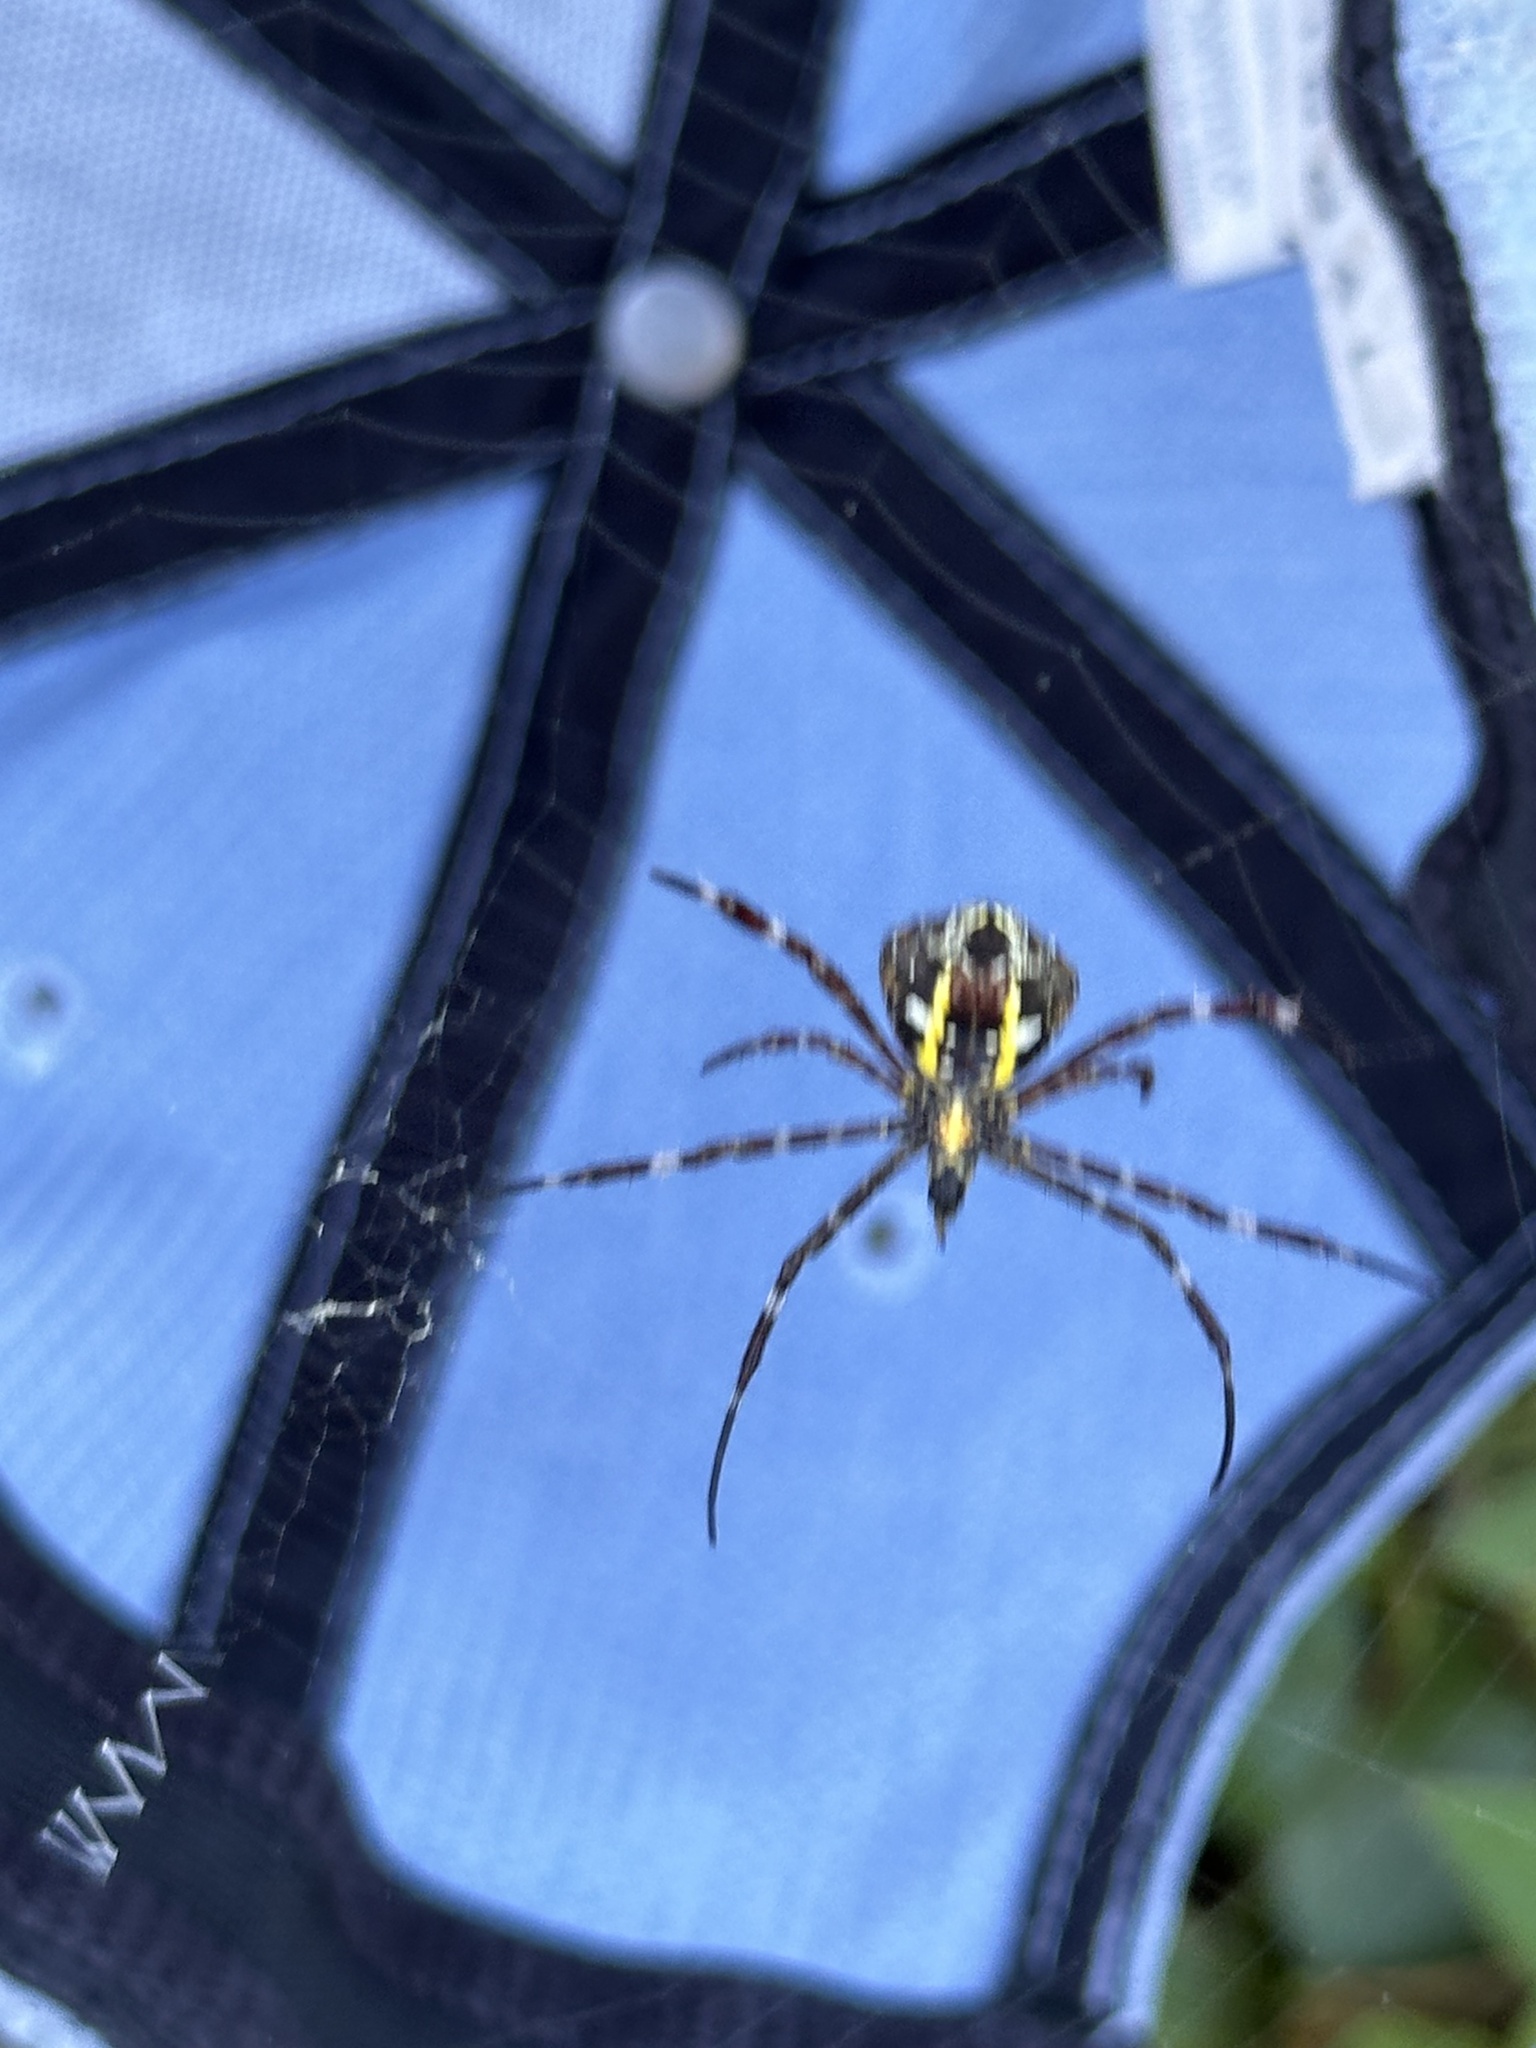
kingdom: Animalia
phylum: Arthropoda
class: Arachnida
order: Araneae
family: Araneidae
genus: Argiope
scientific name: Argiope appensa
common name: Garden spider
